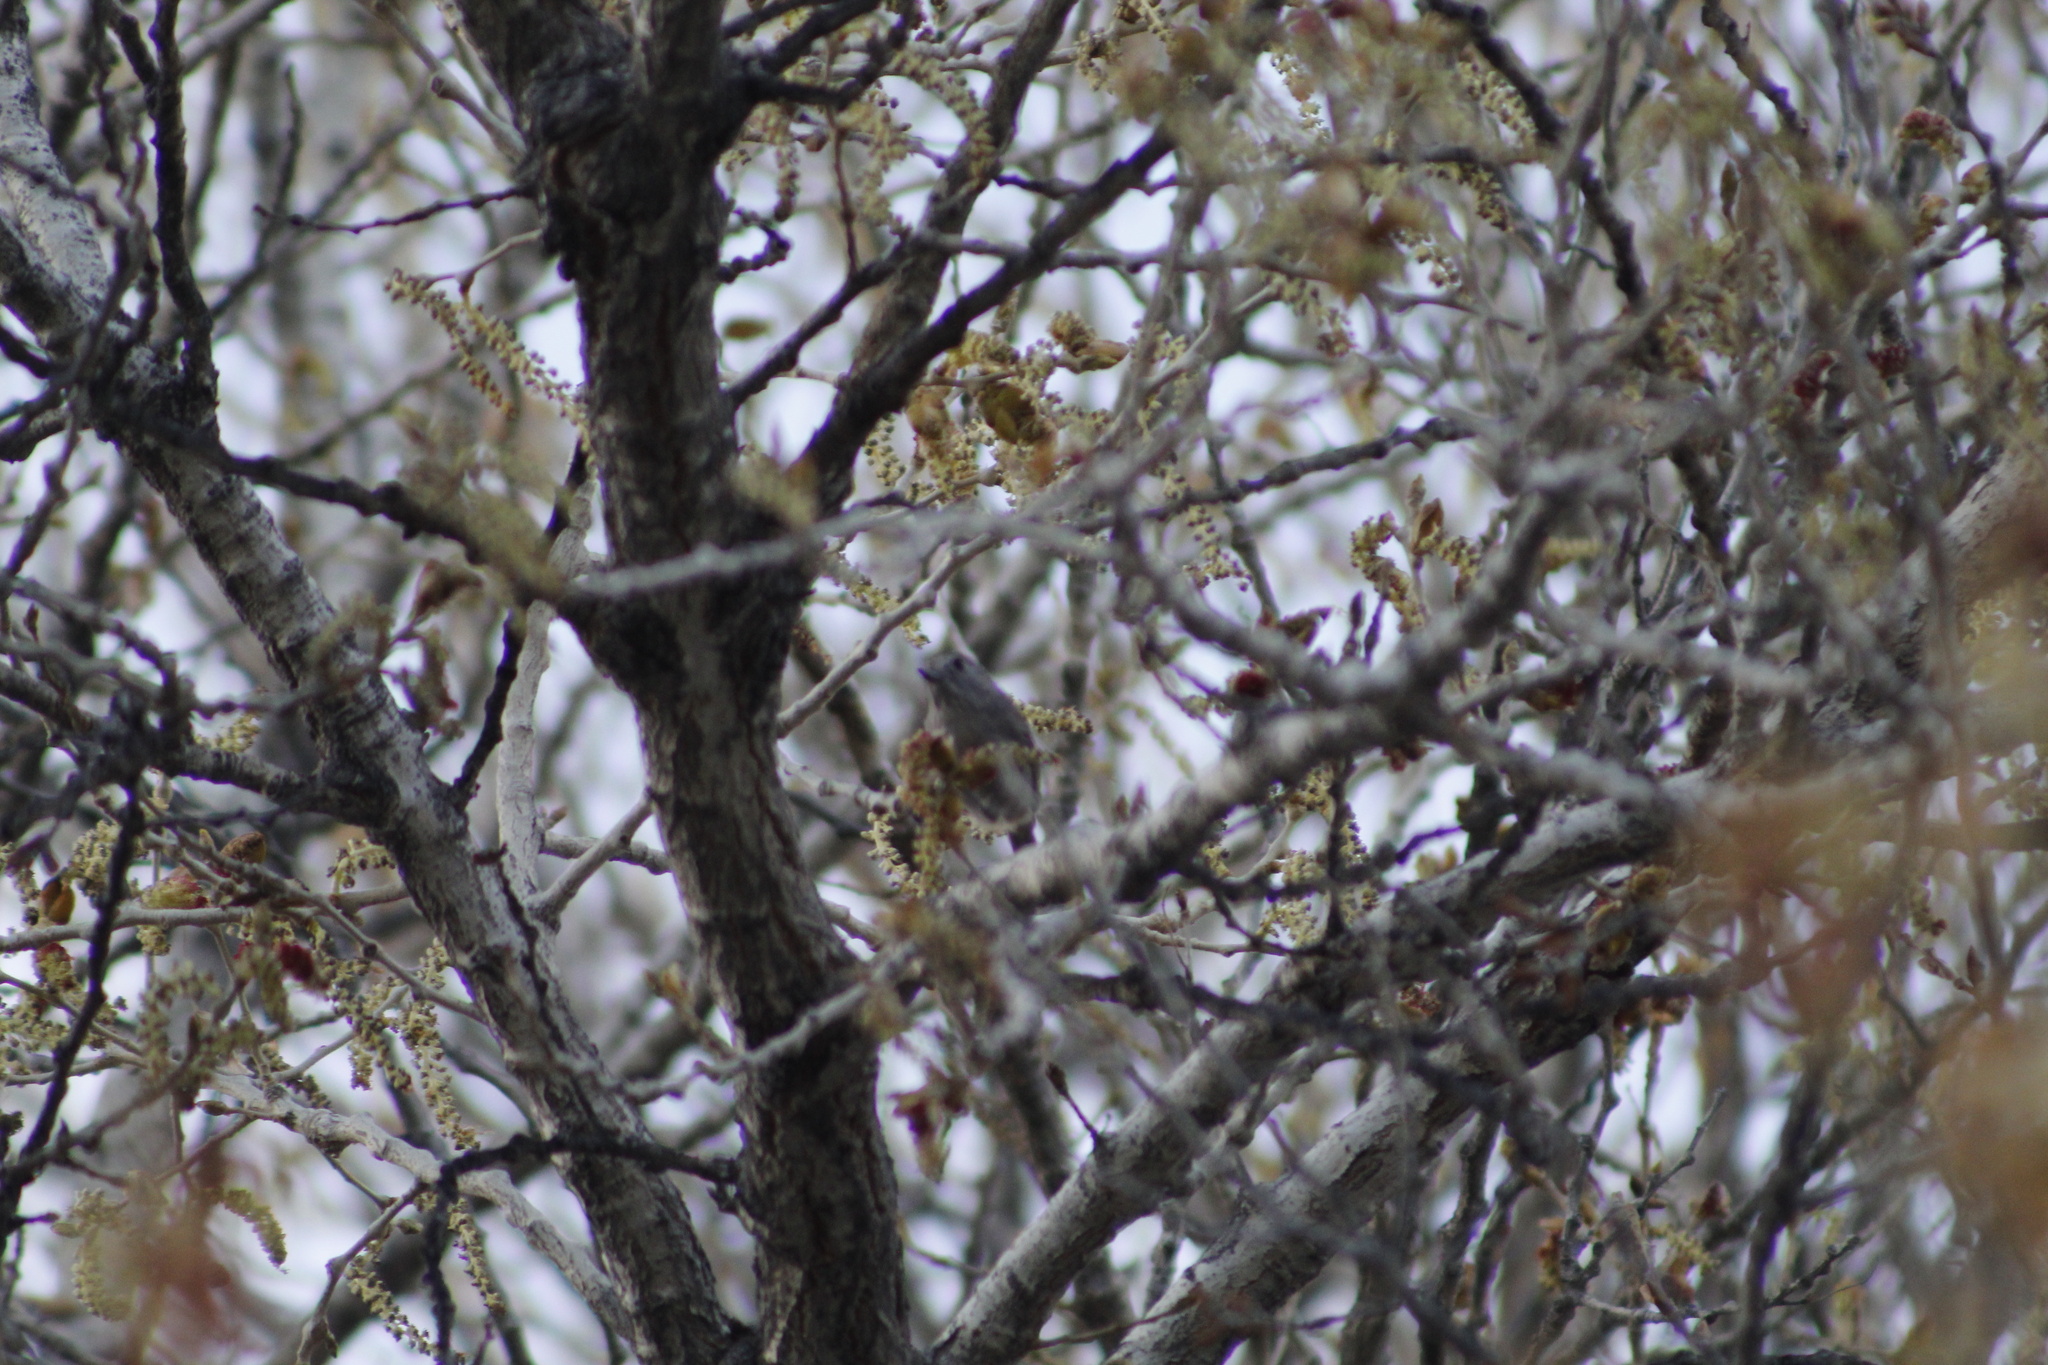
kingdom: Animalia
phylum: Chordata
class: Aves
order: Passeriformes
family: Paridae
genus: Baeolophus
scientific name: Baeolophus inornatus
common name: Oak titmouse
